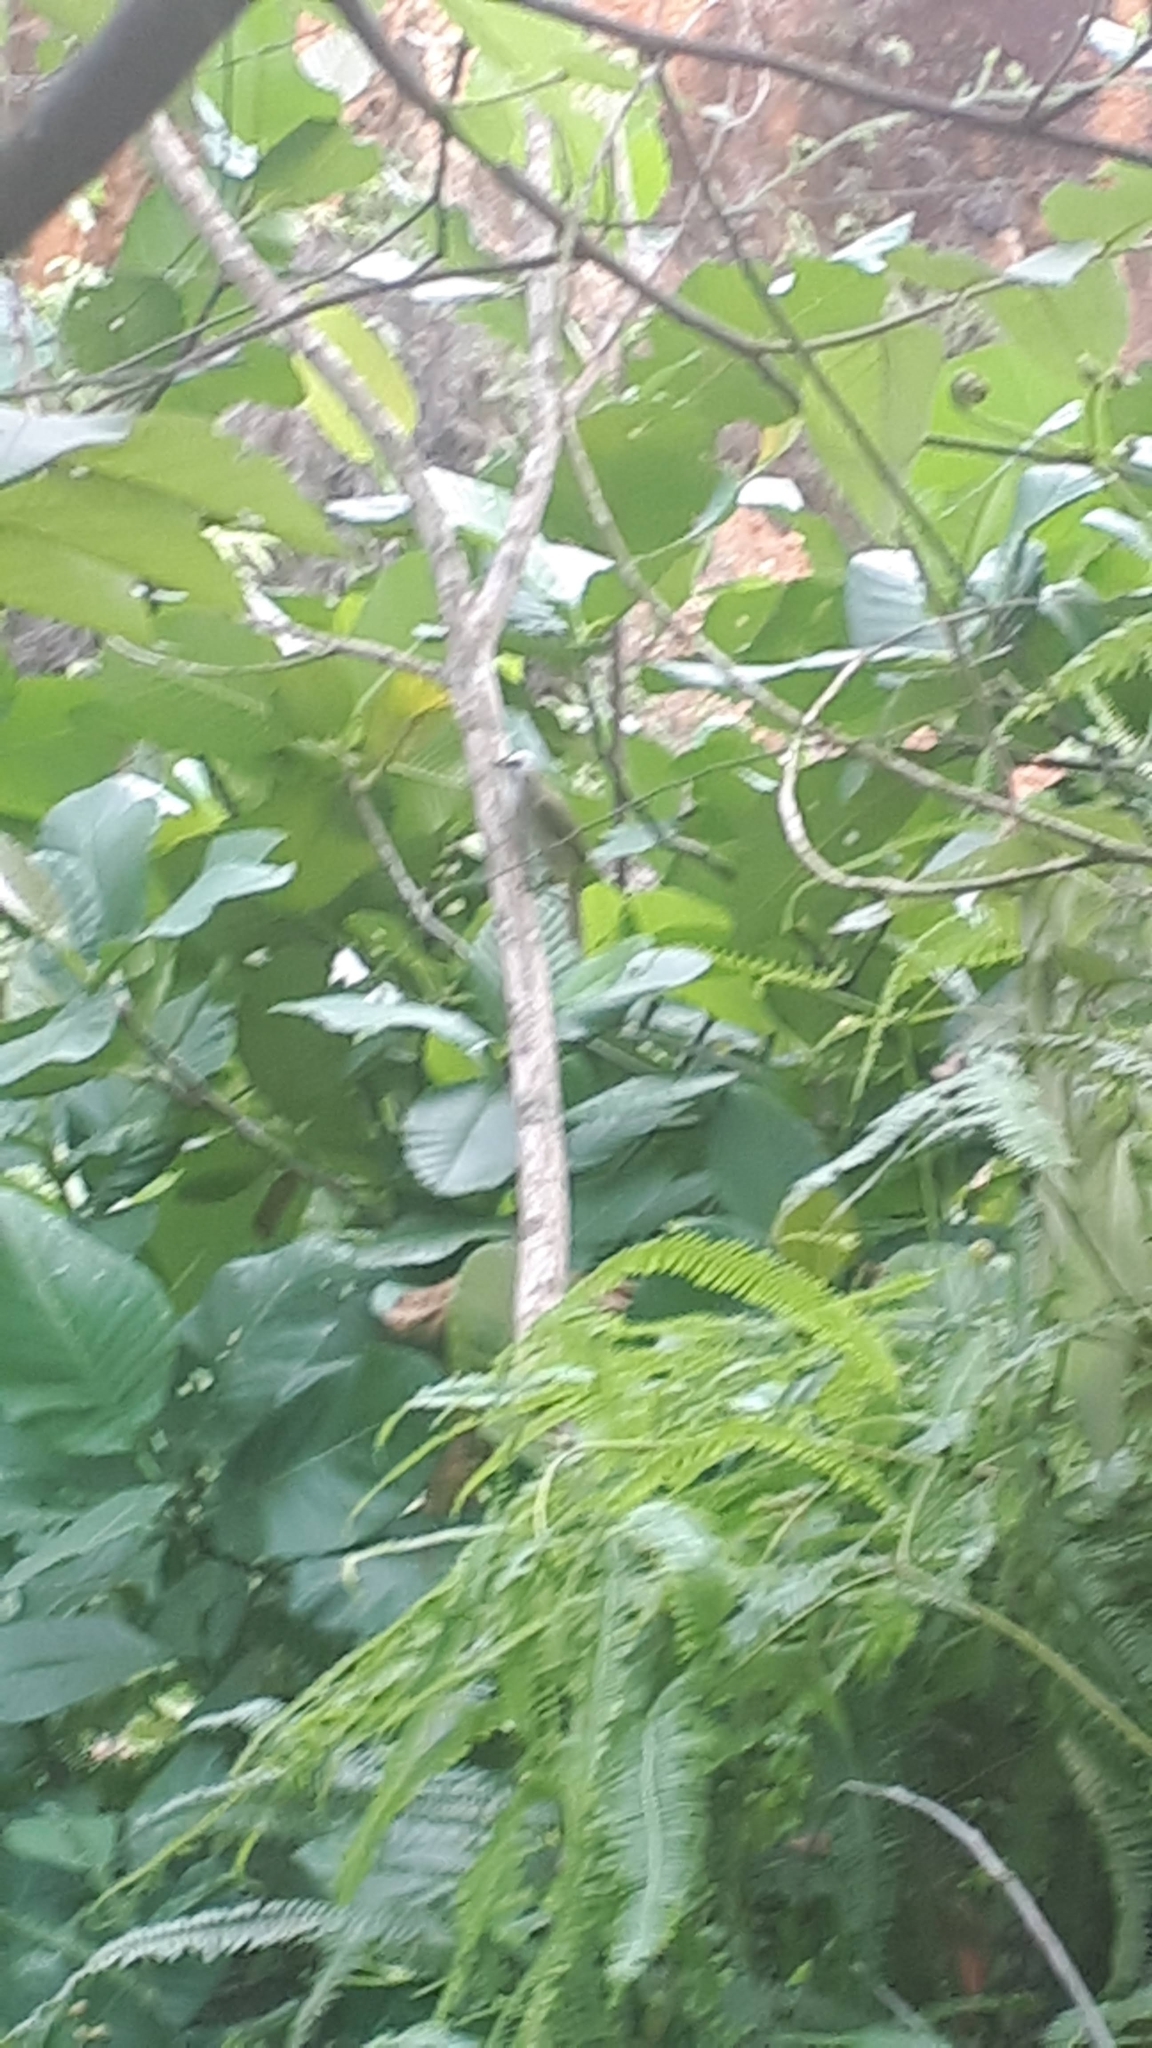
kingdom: Animalia
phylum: Chordata
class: Aves
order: Passeriformes
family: Pycnonotidae
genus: Pycnonotus
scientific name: Pycnonotus goiavier
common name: Yellow-vented bulbul
